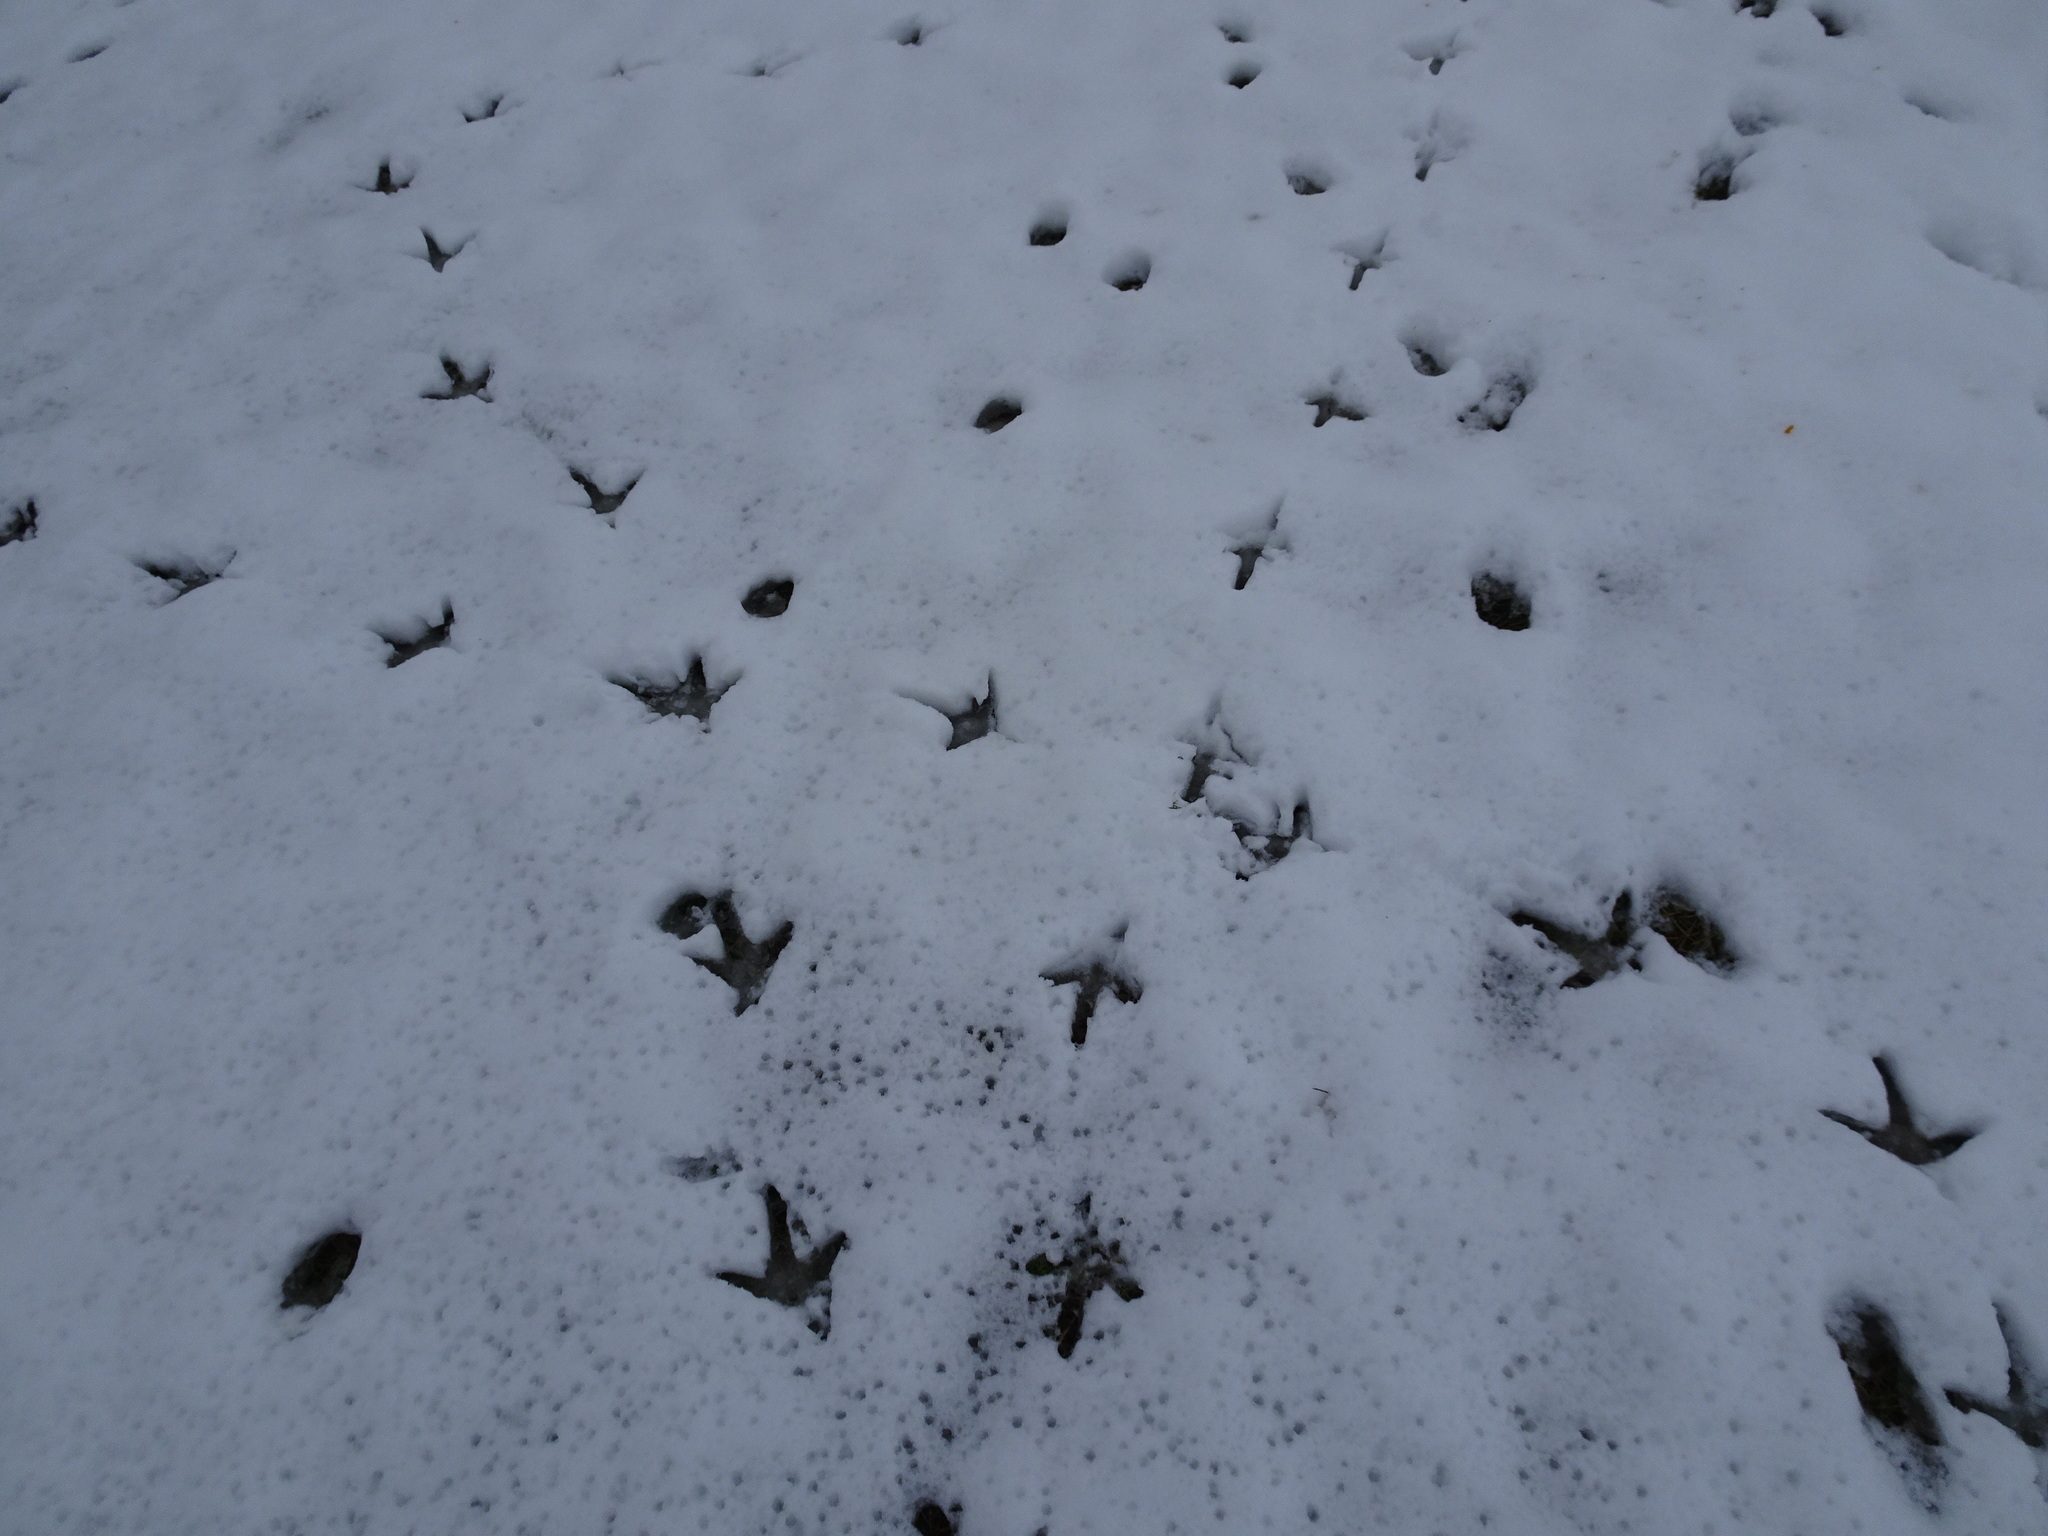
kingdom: Animalia
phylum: Chordata
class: Aves
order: Galliformes
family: Phasianidae
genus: Meleagris
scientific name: Meleagris gallopavo
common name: Wild turkey
